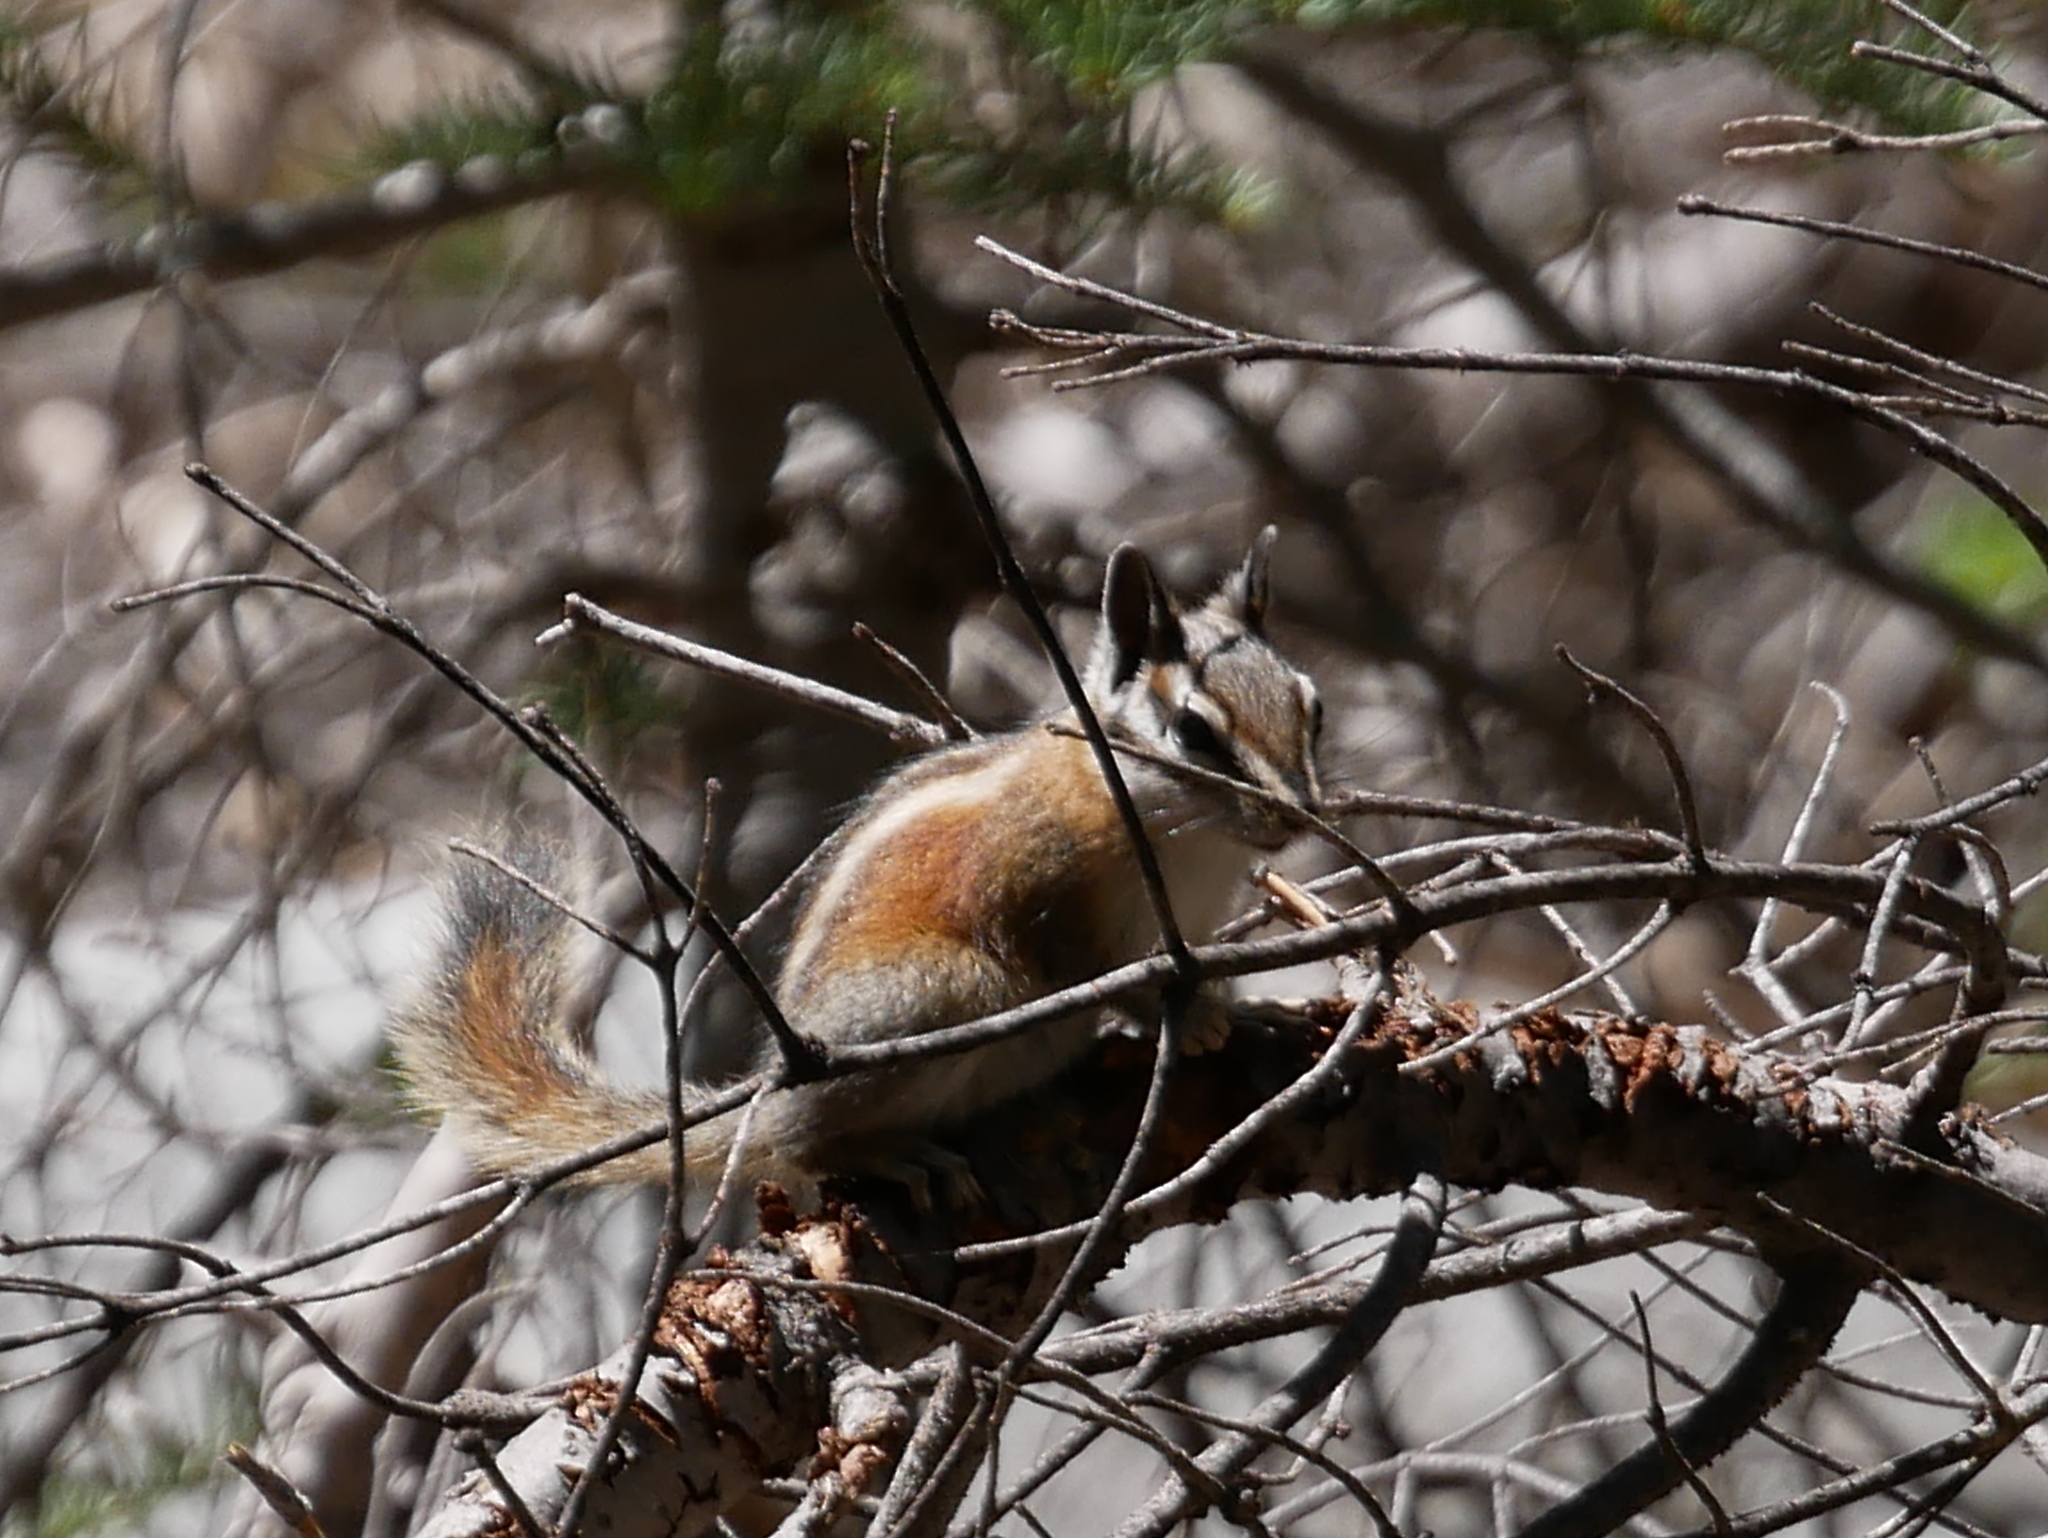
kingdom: Animalia
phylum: Chordata
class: Mammalia
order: Rodentia
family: Sciuridae
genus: Tamias
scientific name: Tamias speciosus
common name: Lodgepole chipmunk
